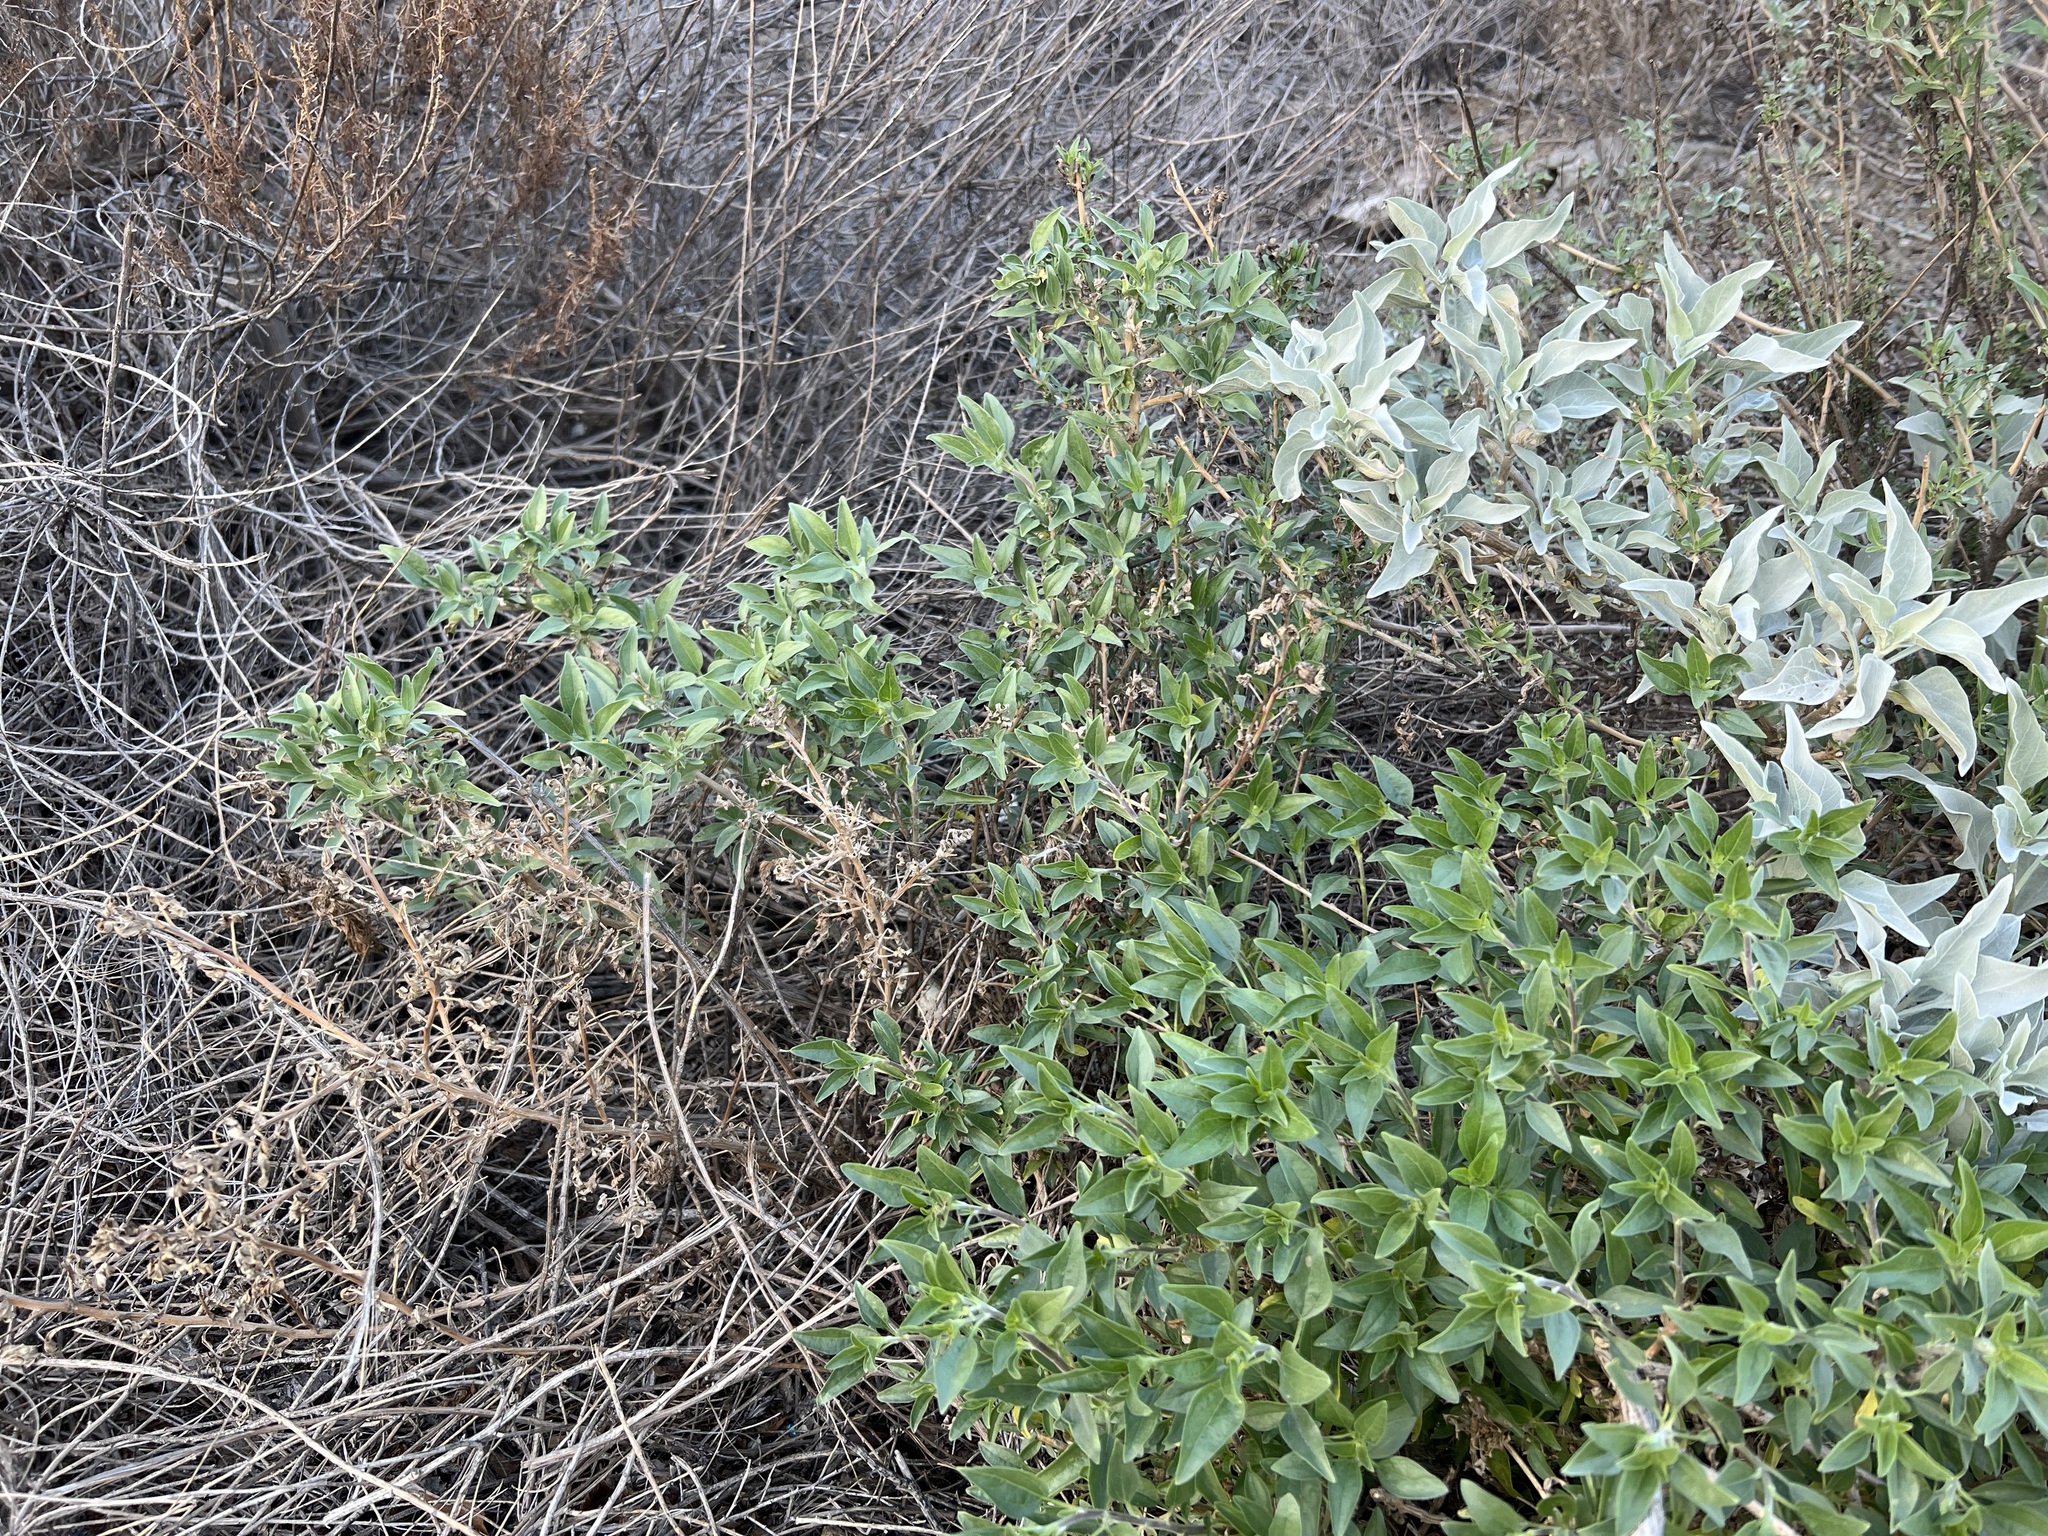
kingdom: Plantae
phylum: Tracheophyta
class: Magnoliopsida
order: Asterales
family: Asteraceae
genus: Encelia
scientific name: Encelia californica
